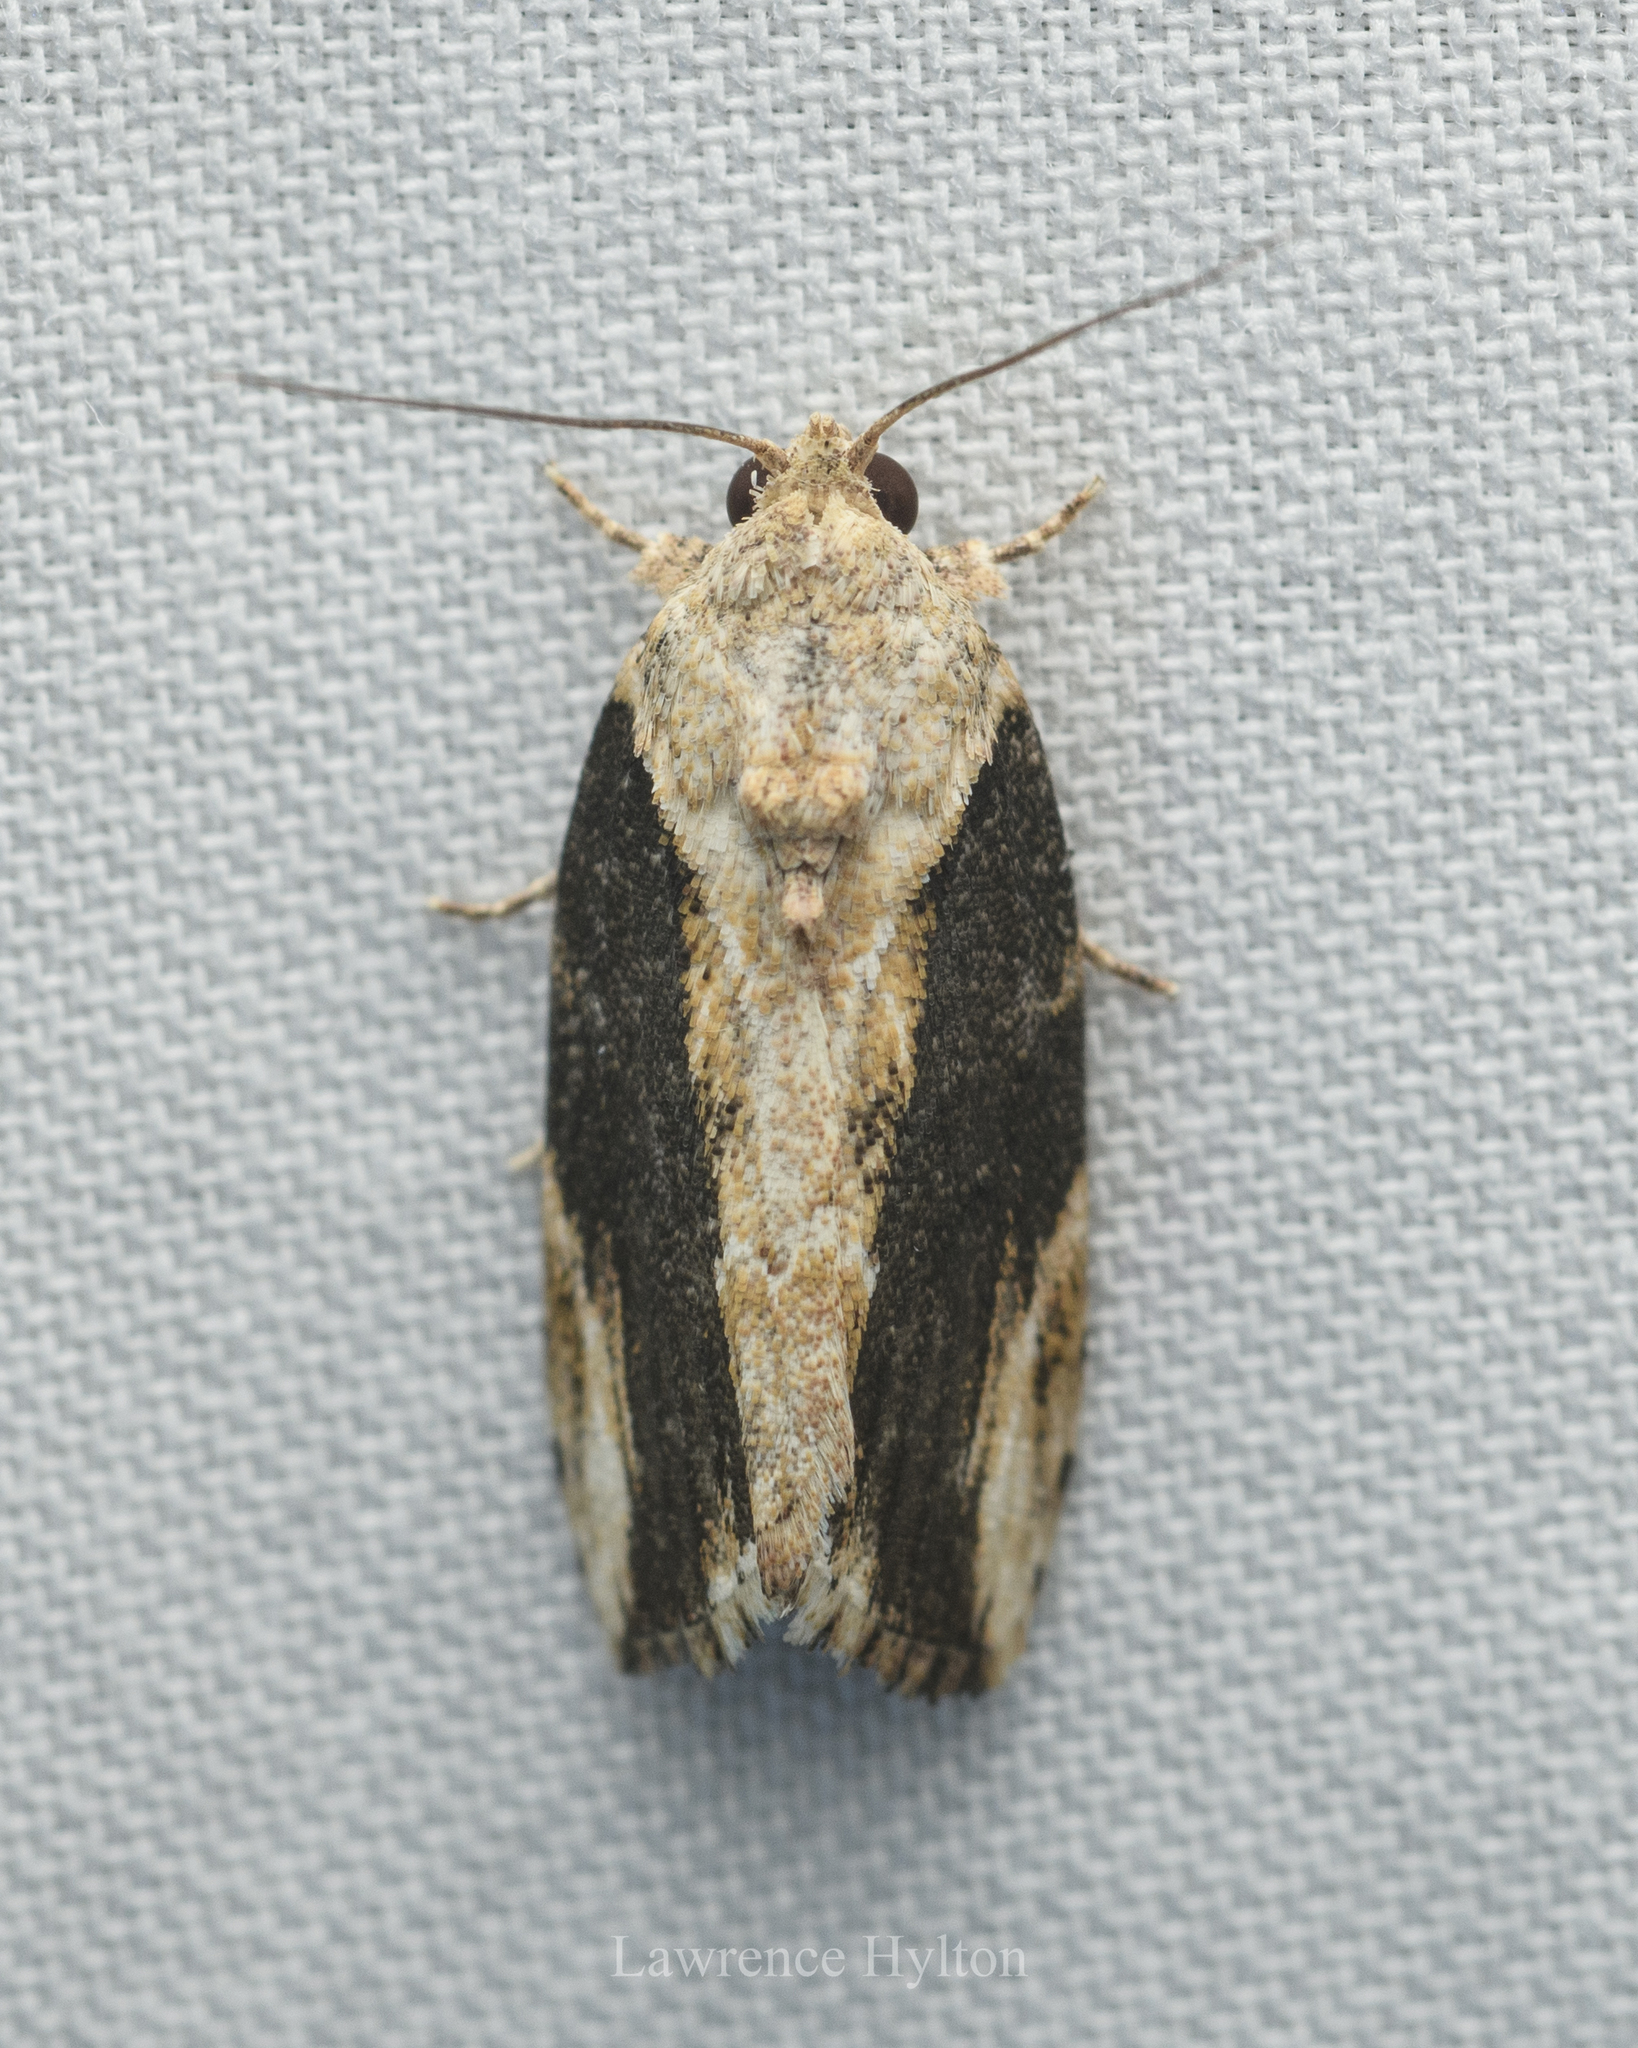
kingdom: Animalia
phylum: Arthropoda
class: Insecta
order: Lepidoptera
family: Nolidae
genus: Etanna
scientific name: Etanna breviuscula
